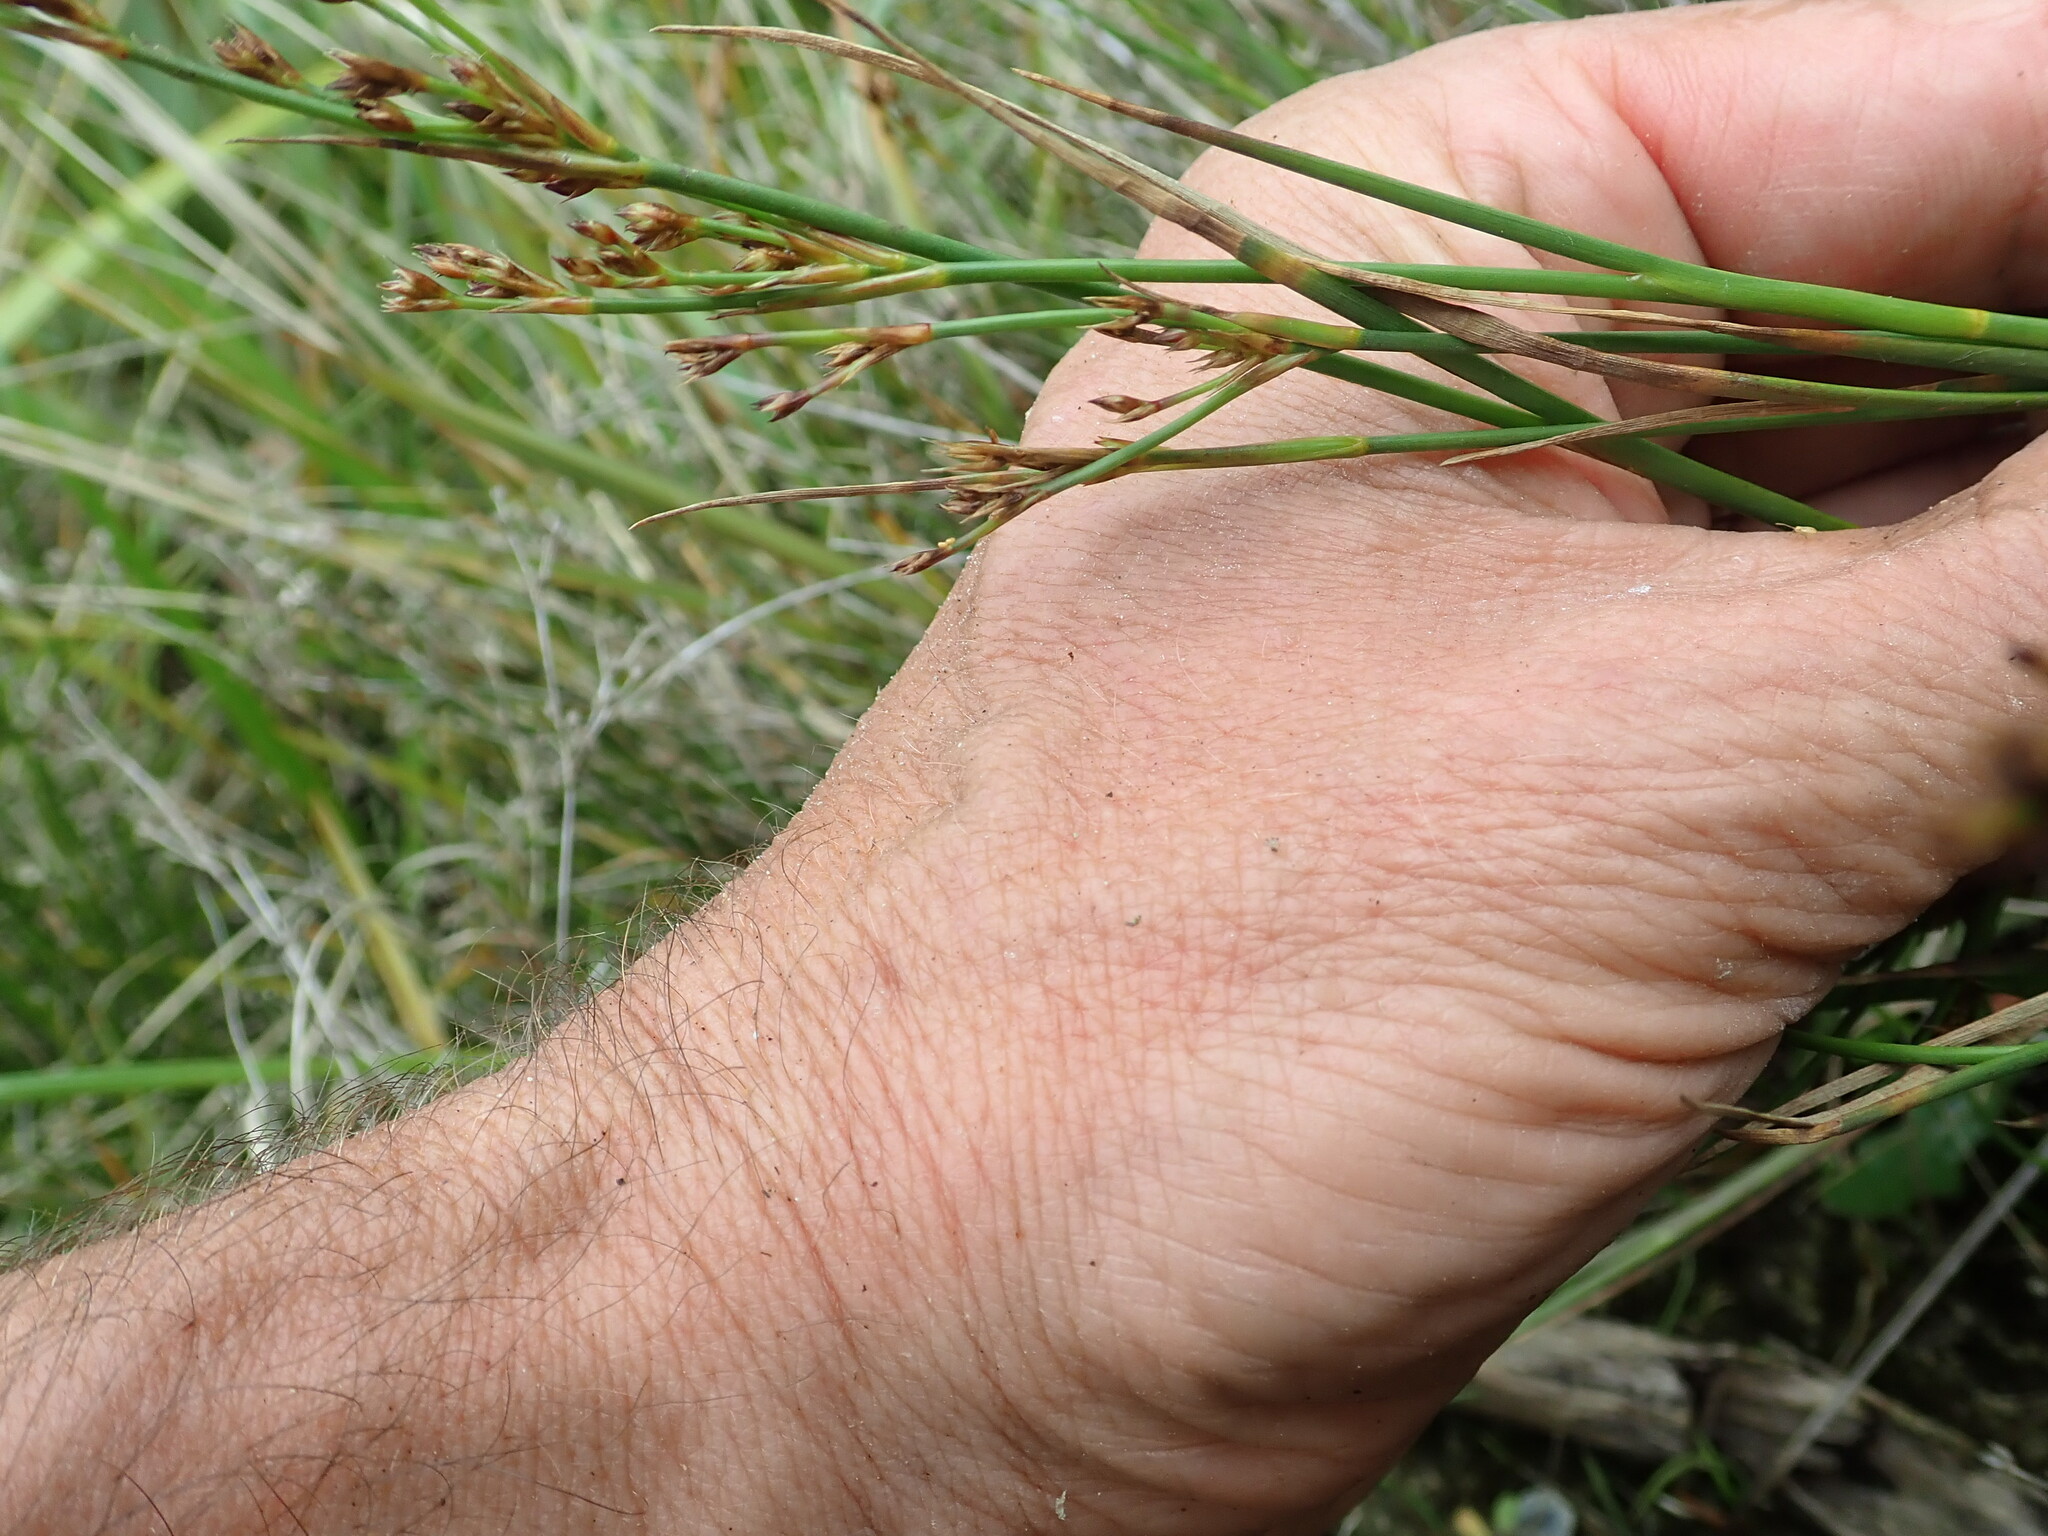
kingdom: Plantae
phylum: Tracheophyta
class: Liliopsida
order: Poales
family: Juncaceae
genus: Juncus
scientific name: Juncus articulatus
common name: Jointed rush
